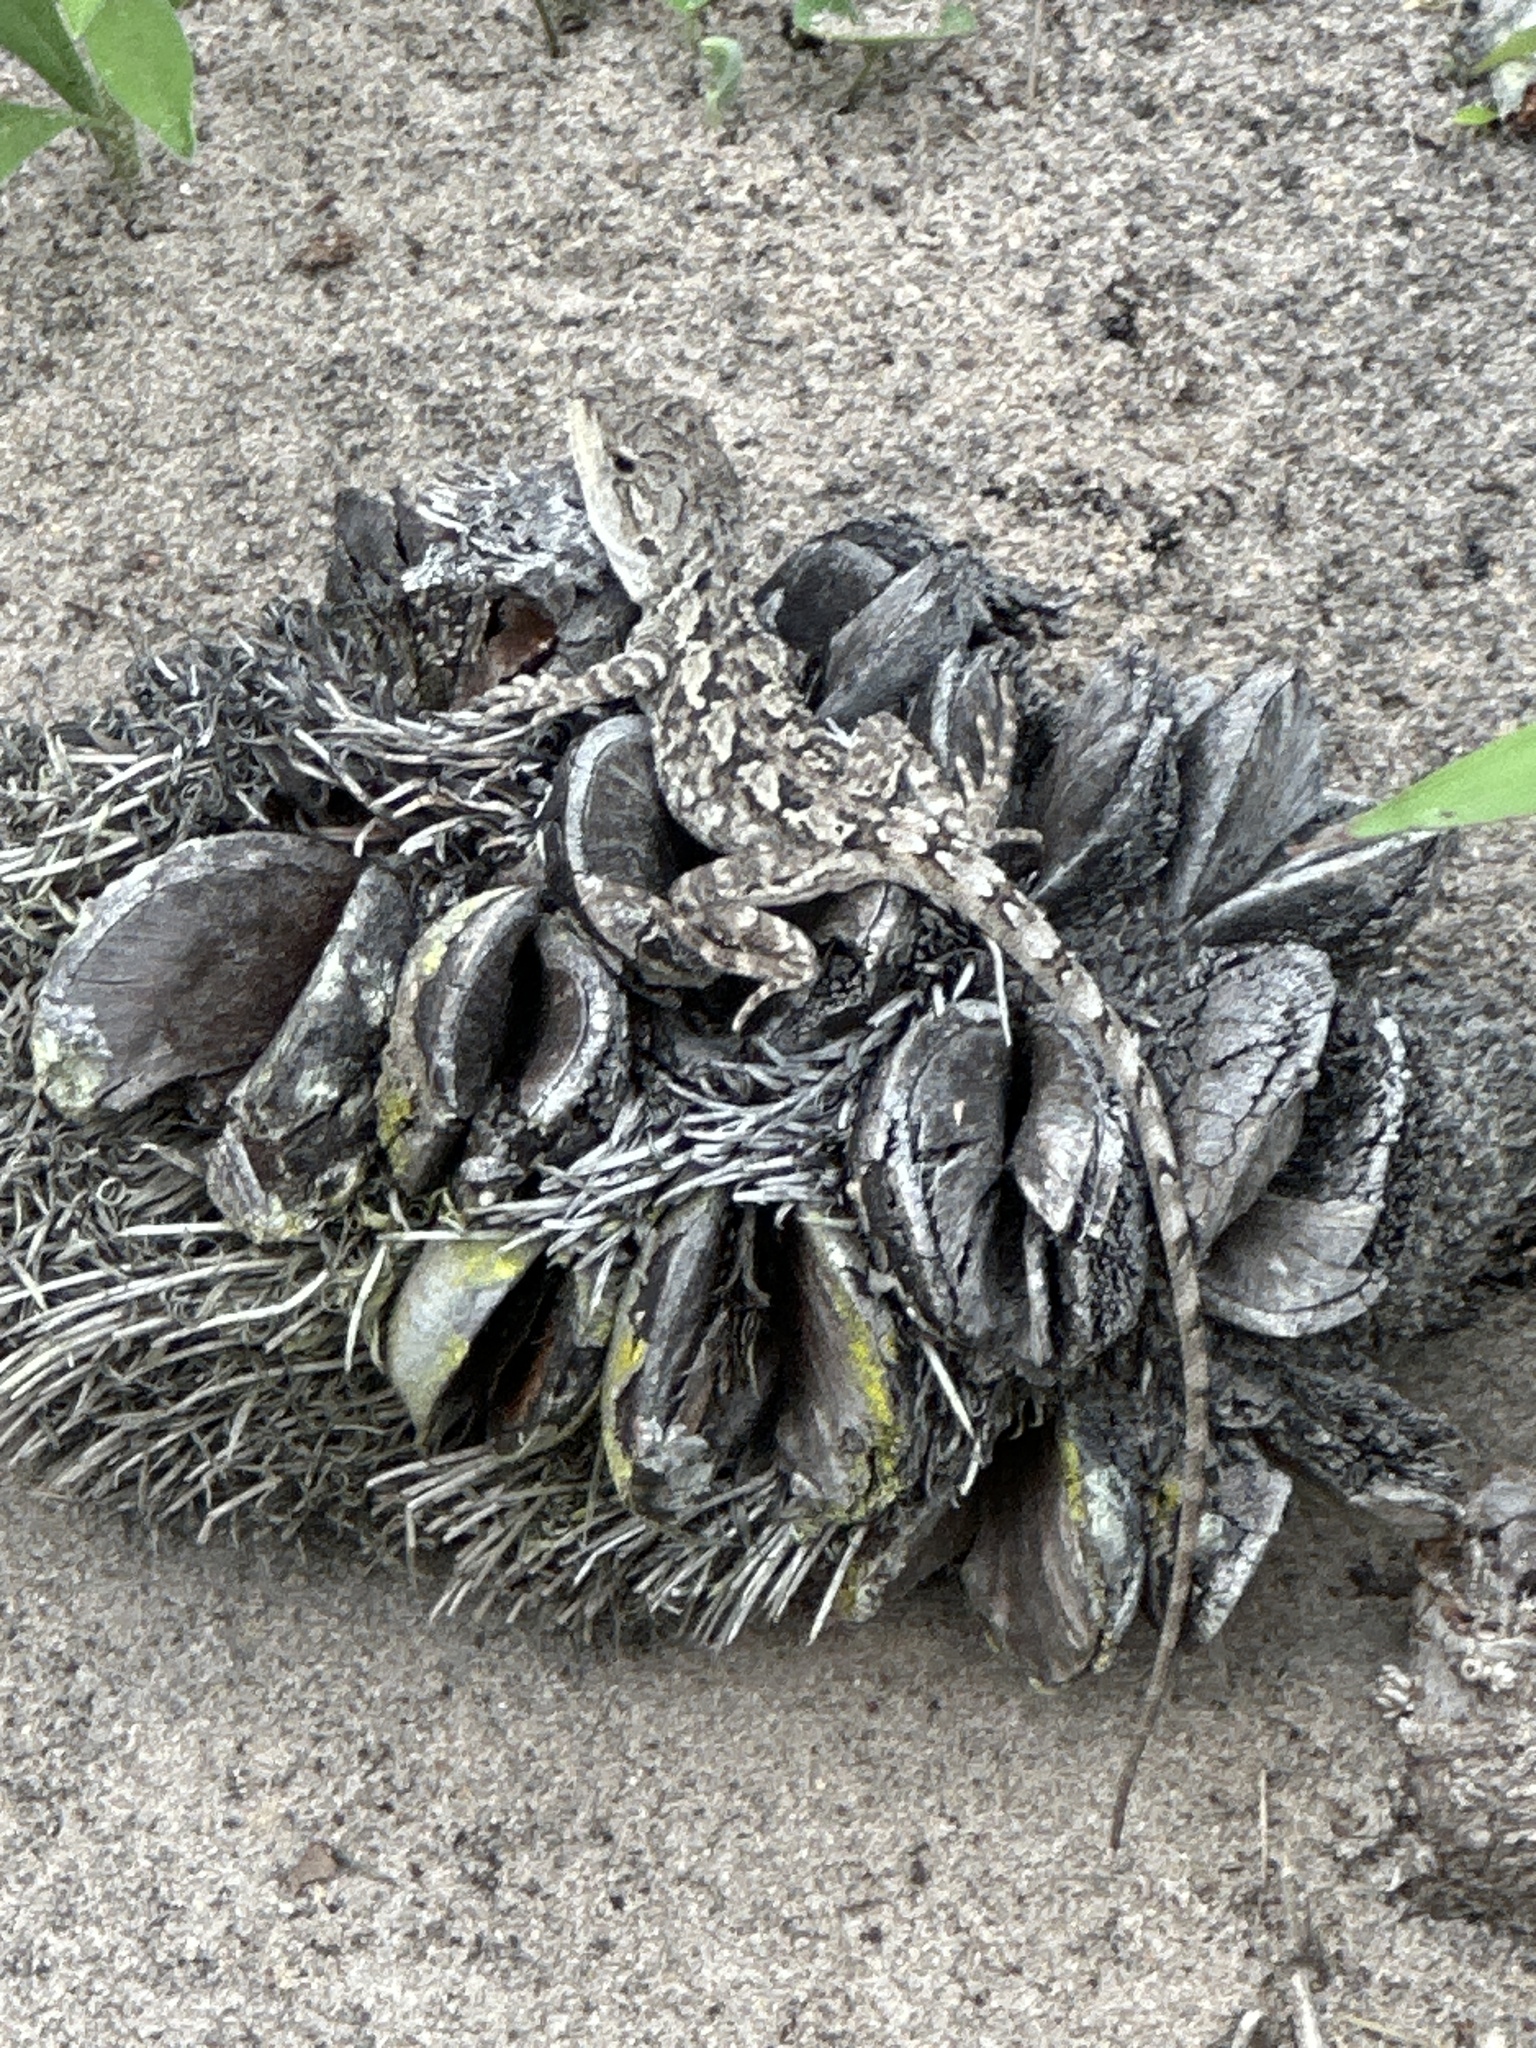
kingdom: Animalia
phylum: Chordata
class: Squamata
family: Agamidae
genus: Amphibolurus
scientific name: Amphibolurus muricatus
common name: Jacky lizard
